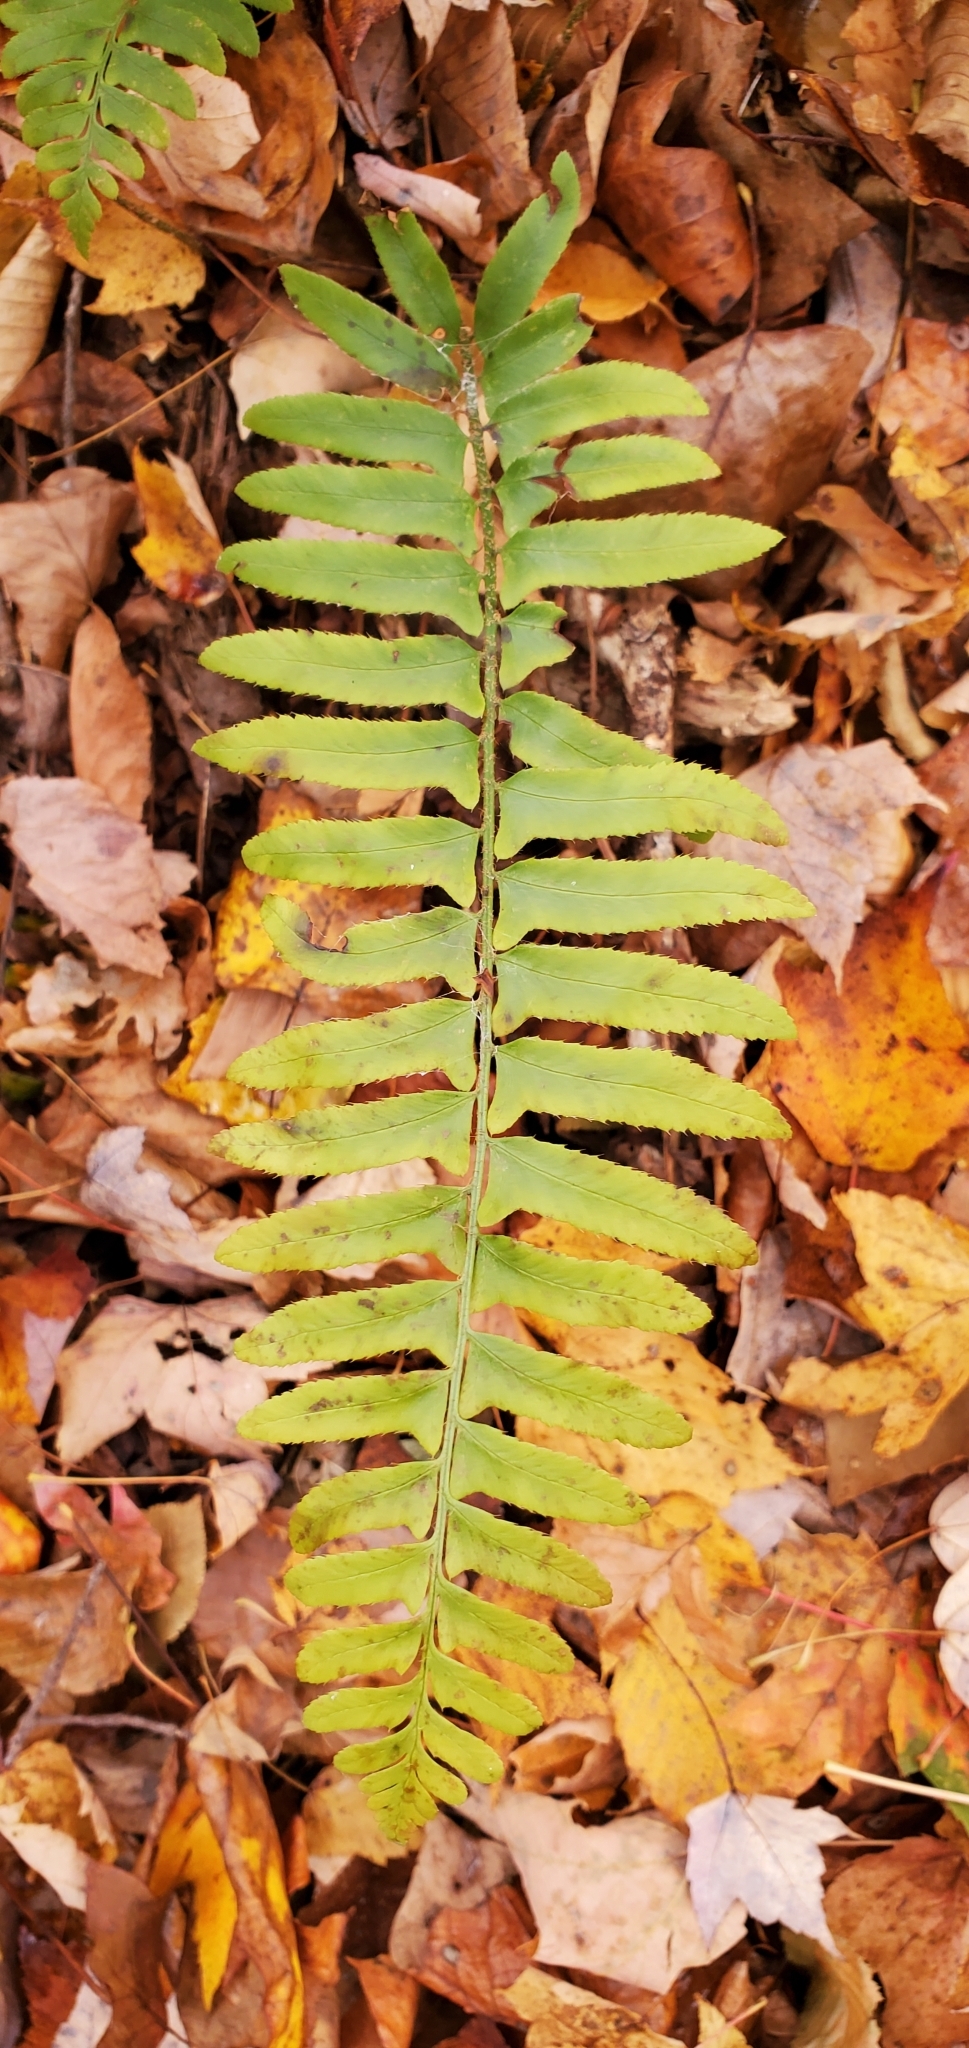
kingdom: Plantae
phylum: Tracheophyta
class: Polypodiopsida
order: Polypodiales
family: Dryopteridaceae
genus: Polystichum
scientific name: Polystichum acrostichoides
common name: Christmas fern
